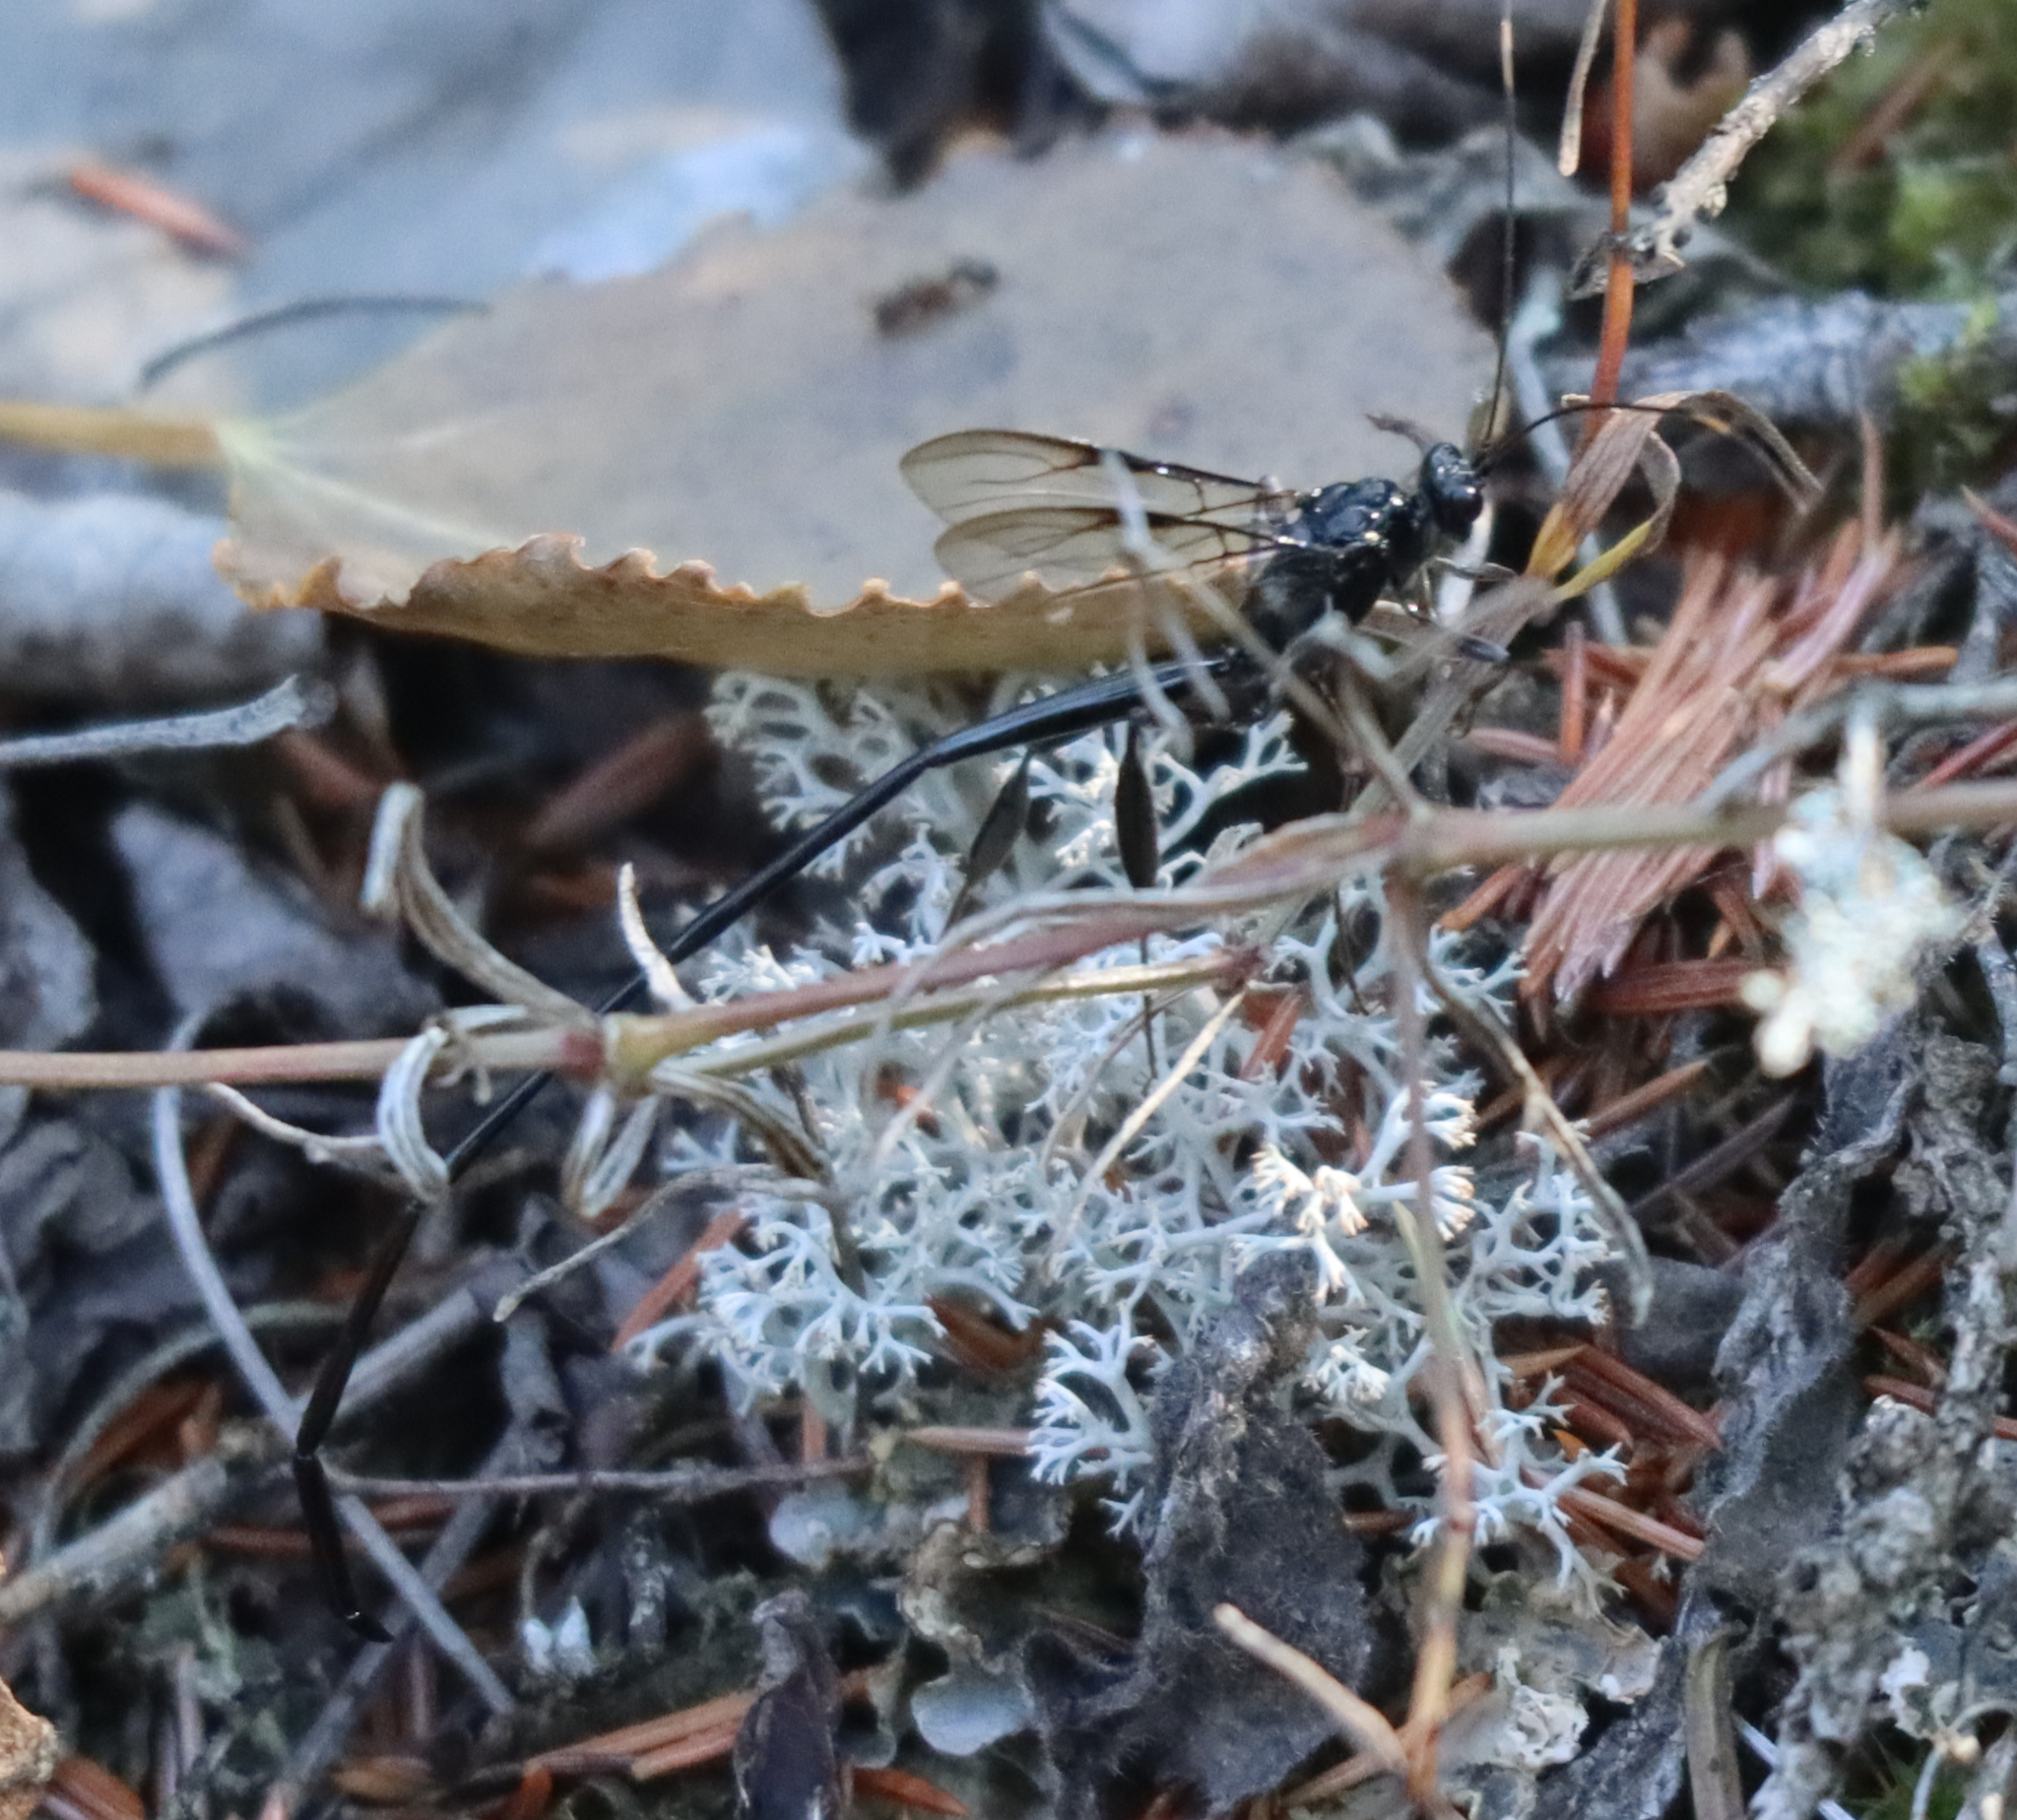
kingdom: Animalia
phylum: Arthropoda
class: Insecta
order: Hymenoptera
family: Pelecinidae
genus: Pelecinus
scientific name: Pelecinus polyturator
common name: American pelecinid wasp
